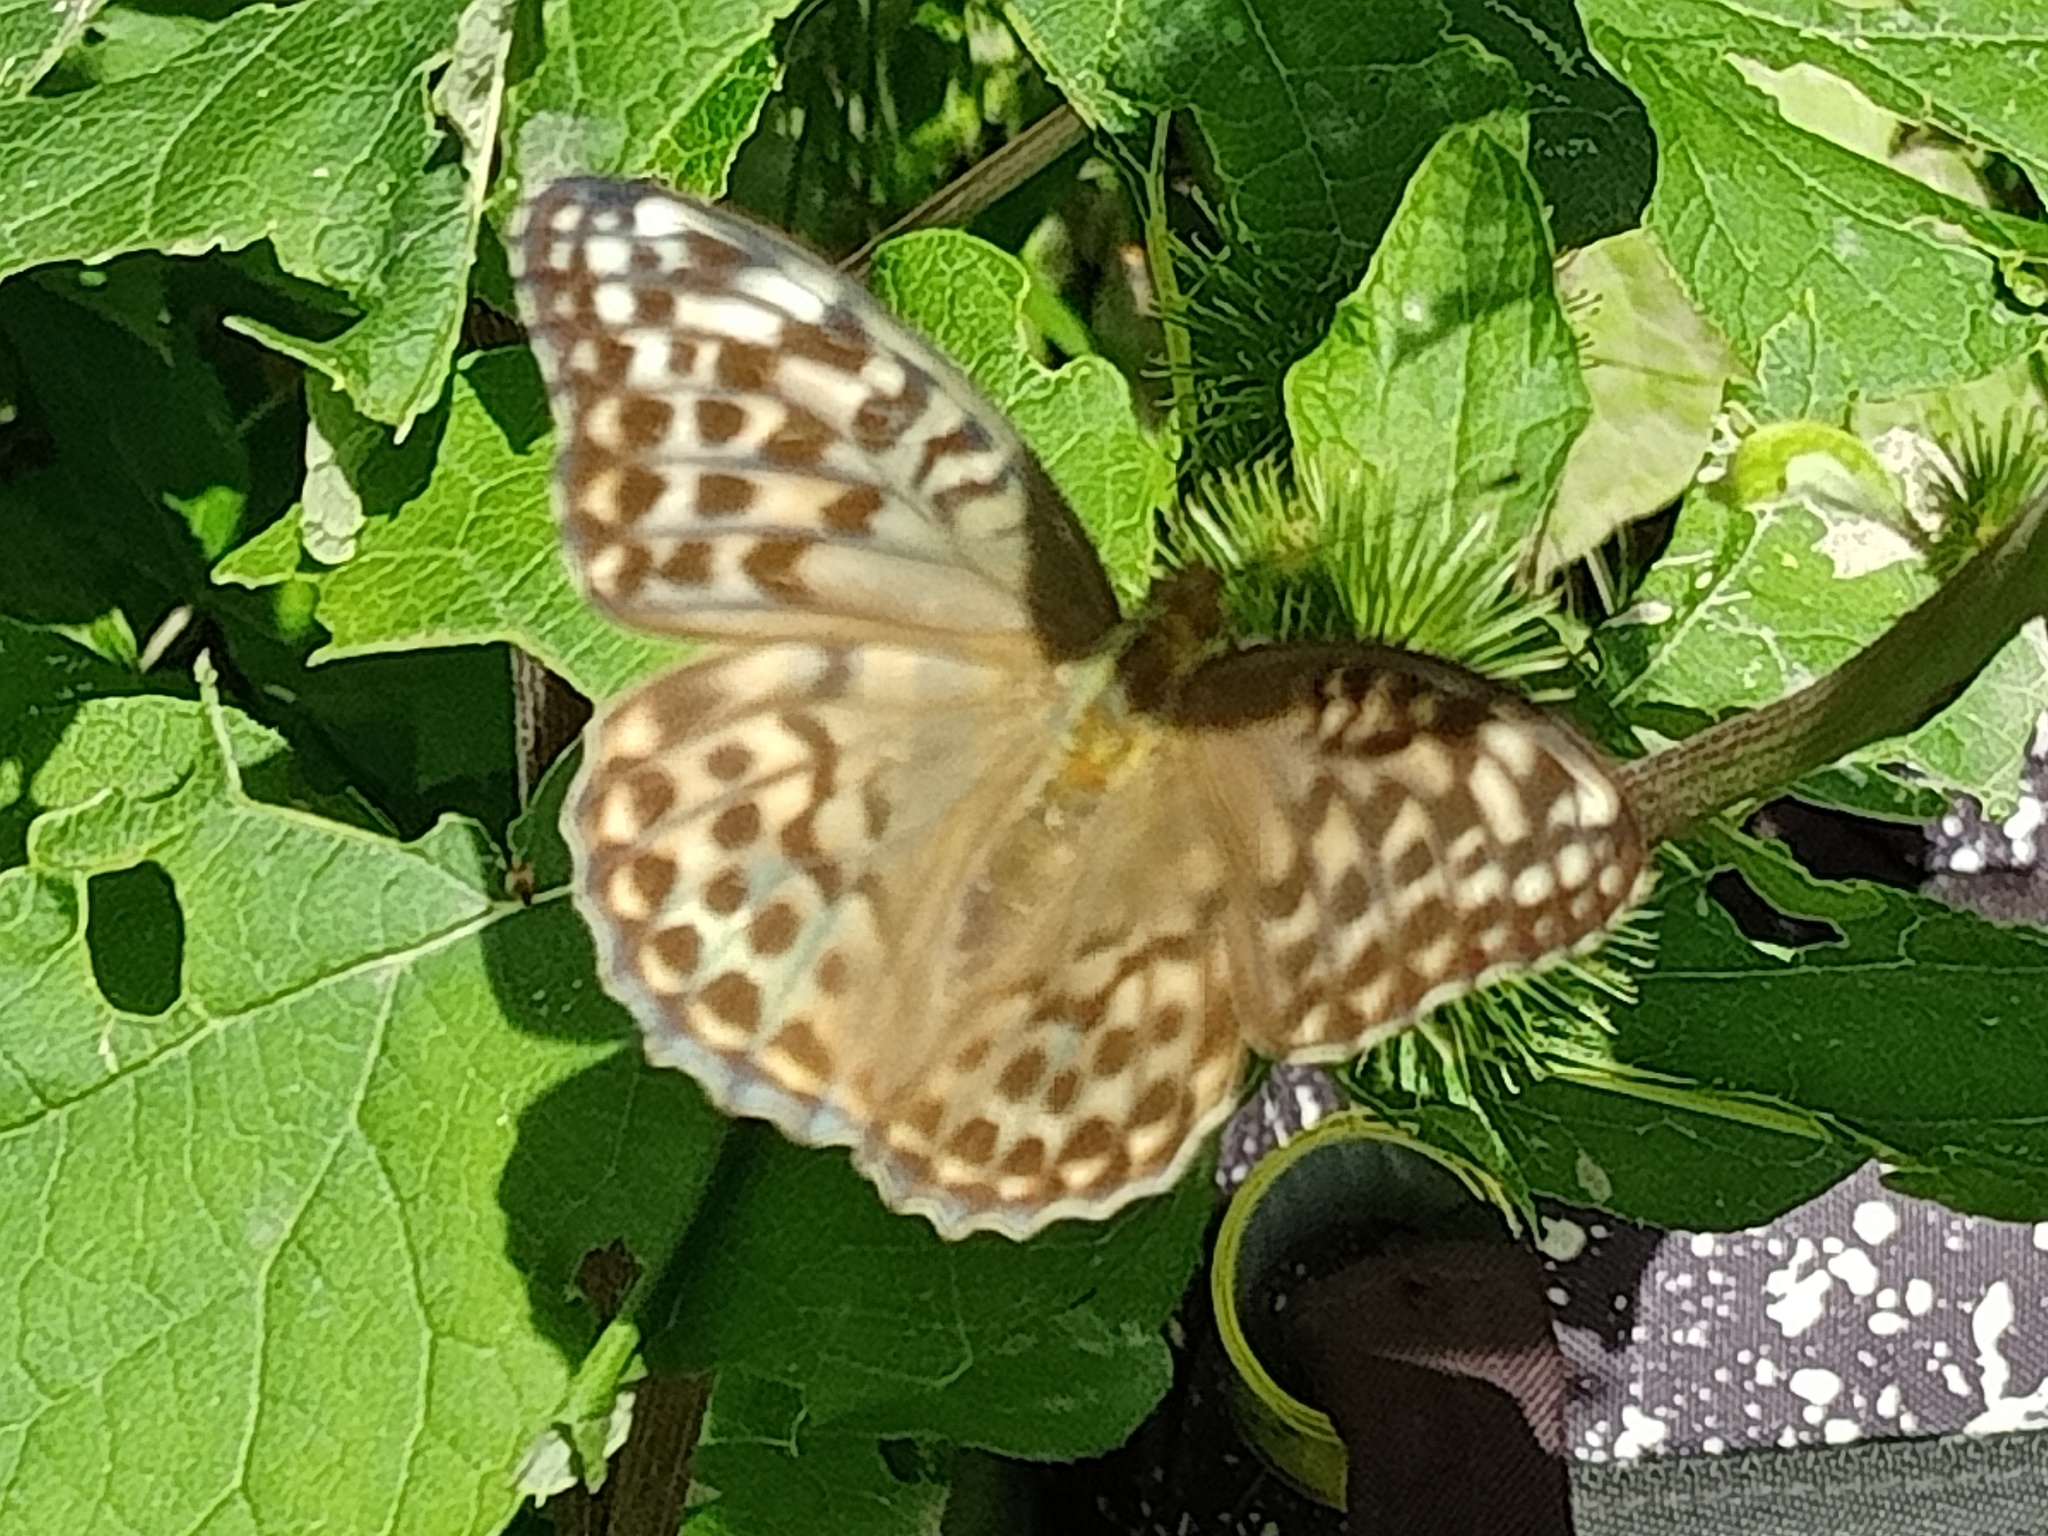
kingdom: Animalia
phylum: Arthropoda
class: Insecta
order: Lepidoptera
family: Nymphalidae
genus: Argynnis
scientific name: Argynnis paphia
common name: Silver-washed fritillary
